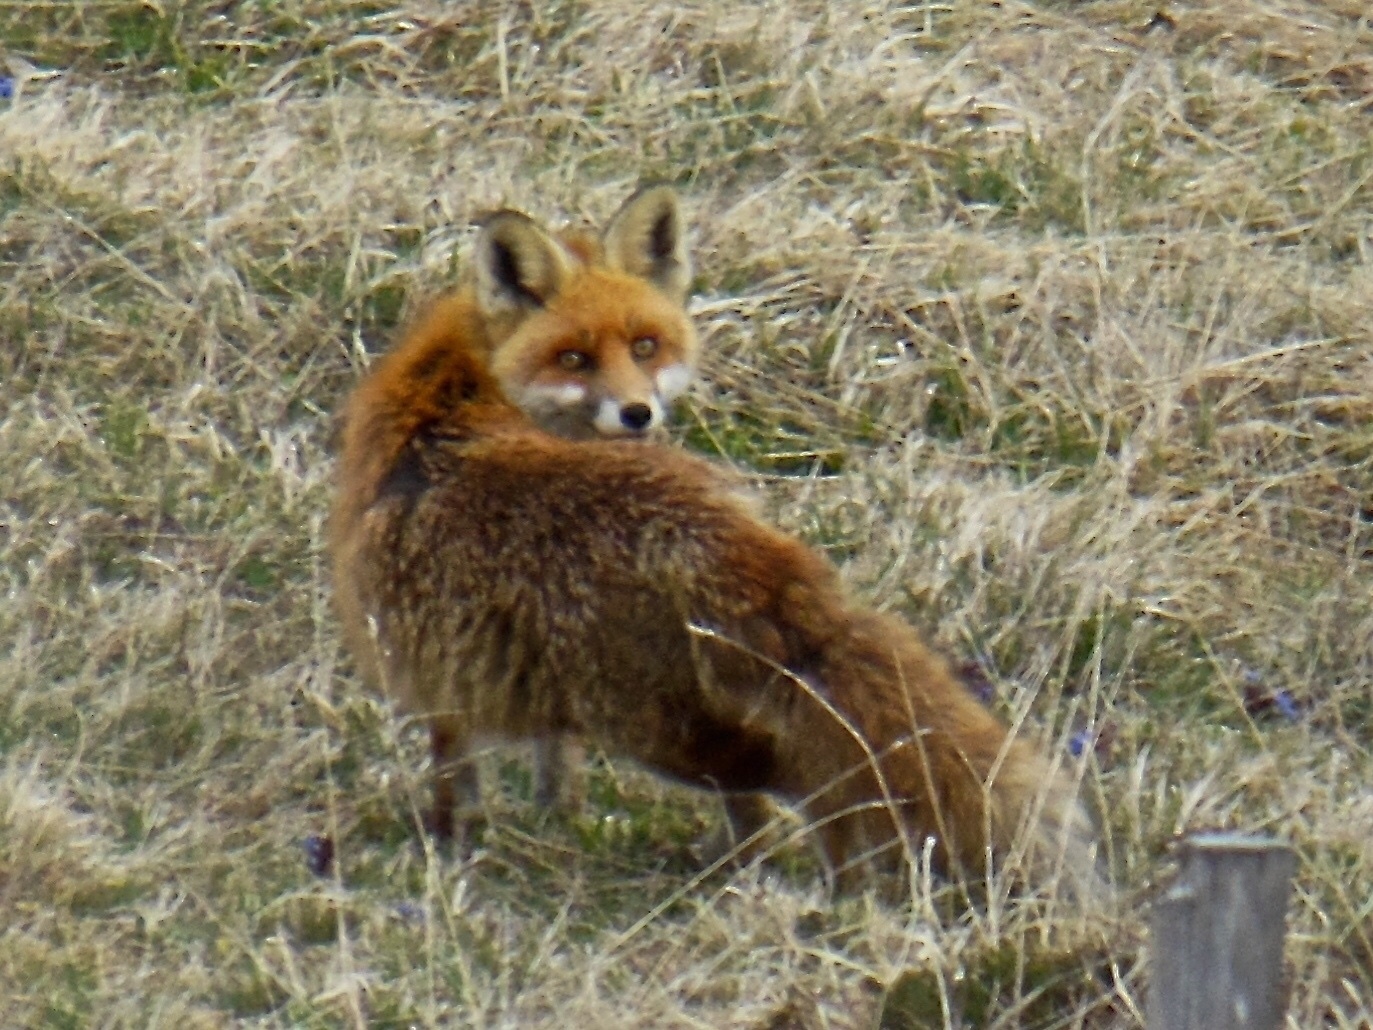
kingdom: Animalia
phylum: Chordata
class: Mammalia
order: Carnivora
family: Canidae
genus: Vulpes
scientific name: Vulpes vulpes
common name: Red fox
